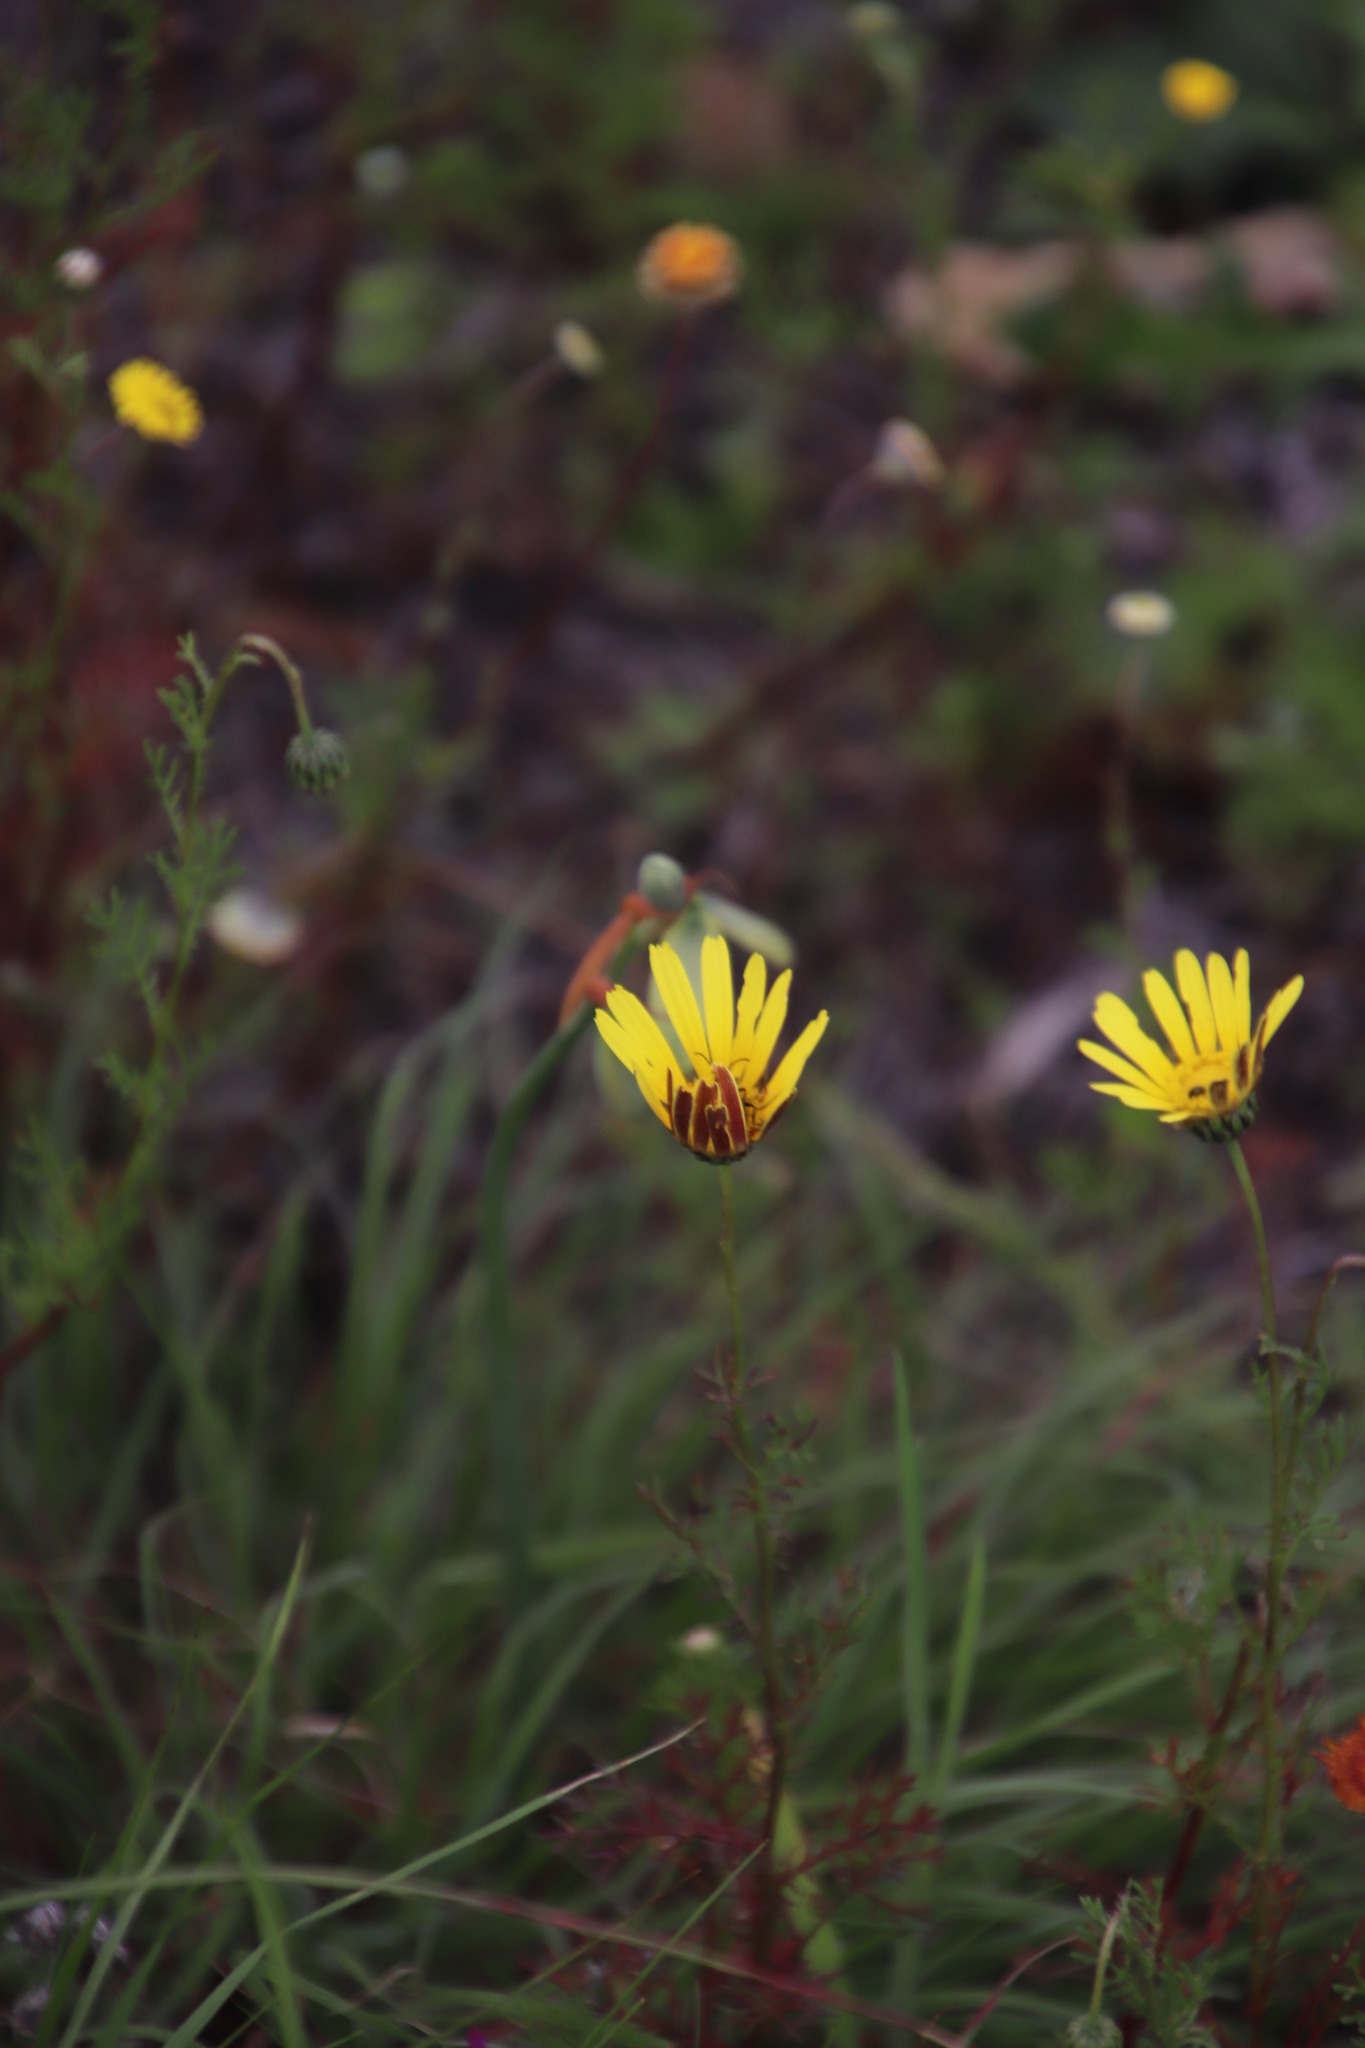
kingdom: Plantae
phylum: Tracheophyta
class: Magnoliopsida
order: Asterales
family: Asteraceae
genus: Ursinia
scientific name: Ursinia anthemoides
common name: Ursinia
